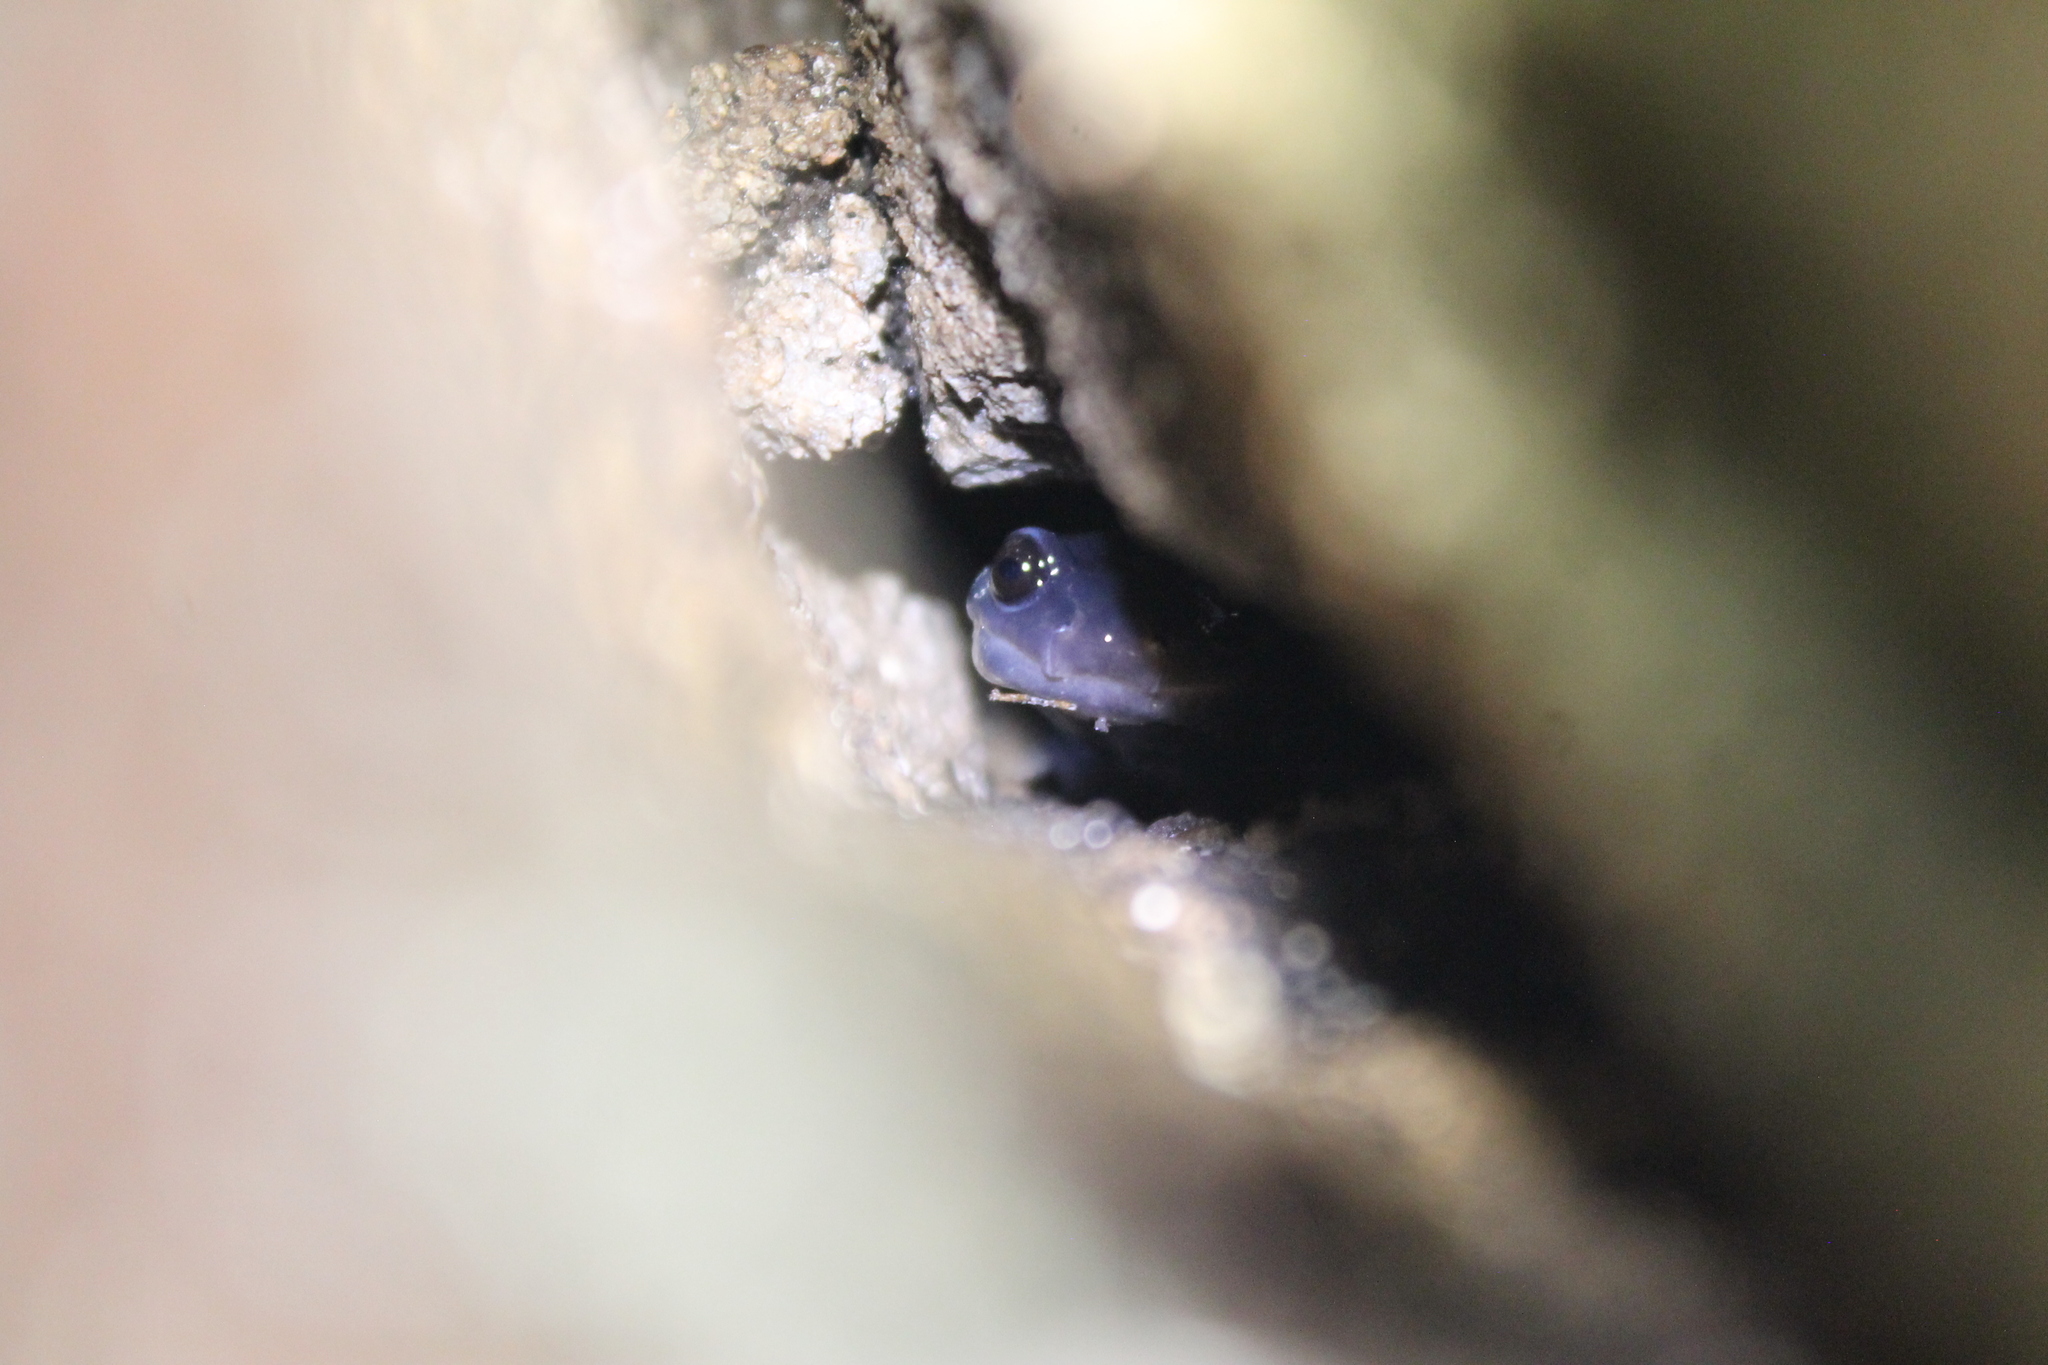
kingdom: Animalia
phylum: Chordata
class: Amphibia
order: Caudata
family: Plethodontidae
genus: Plethodon
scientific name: Plethodon glutinosus
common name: Northern slimy salamander
